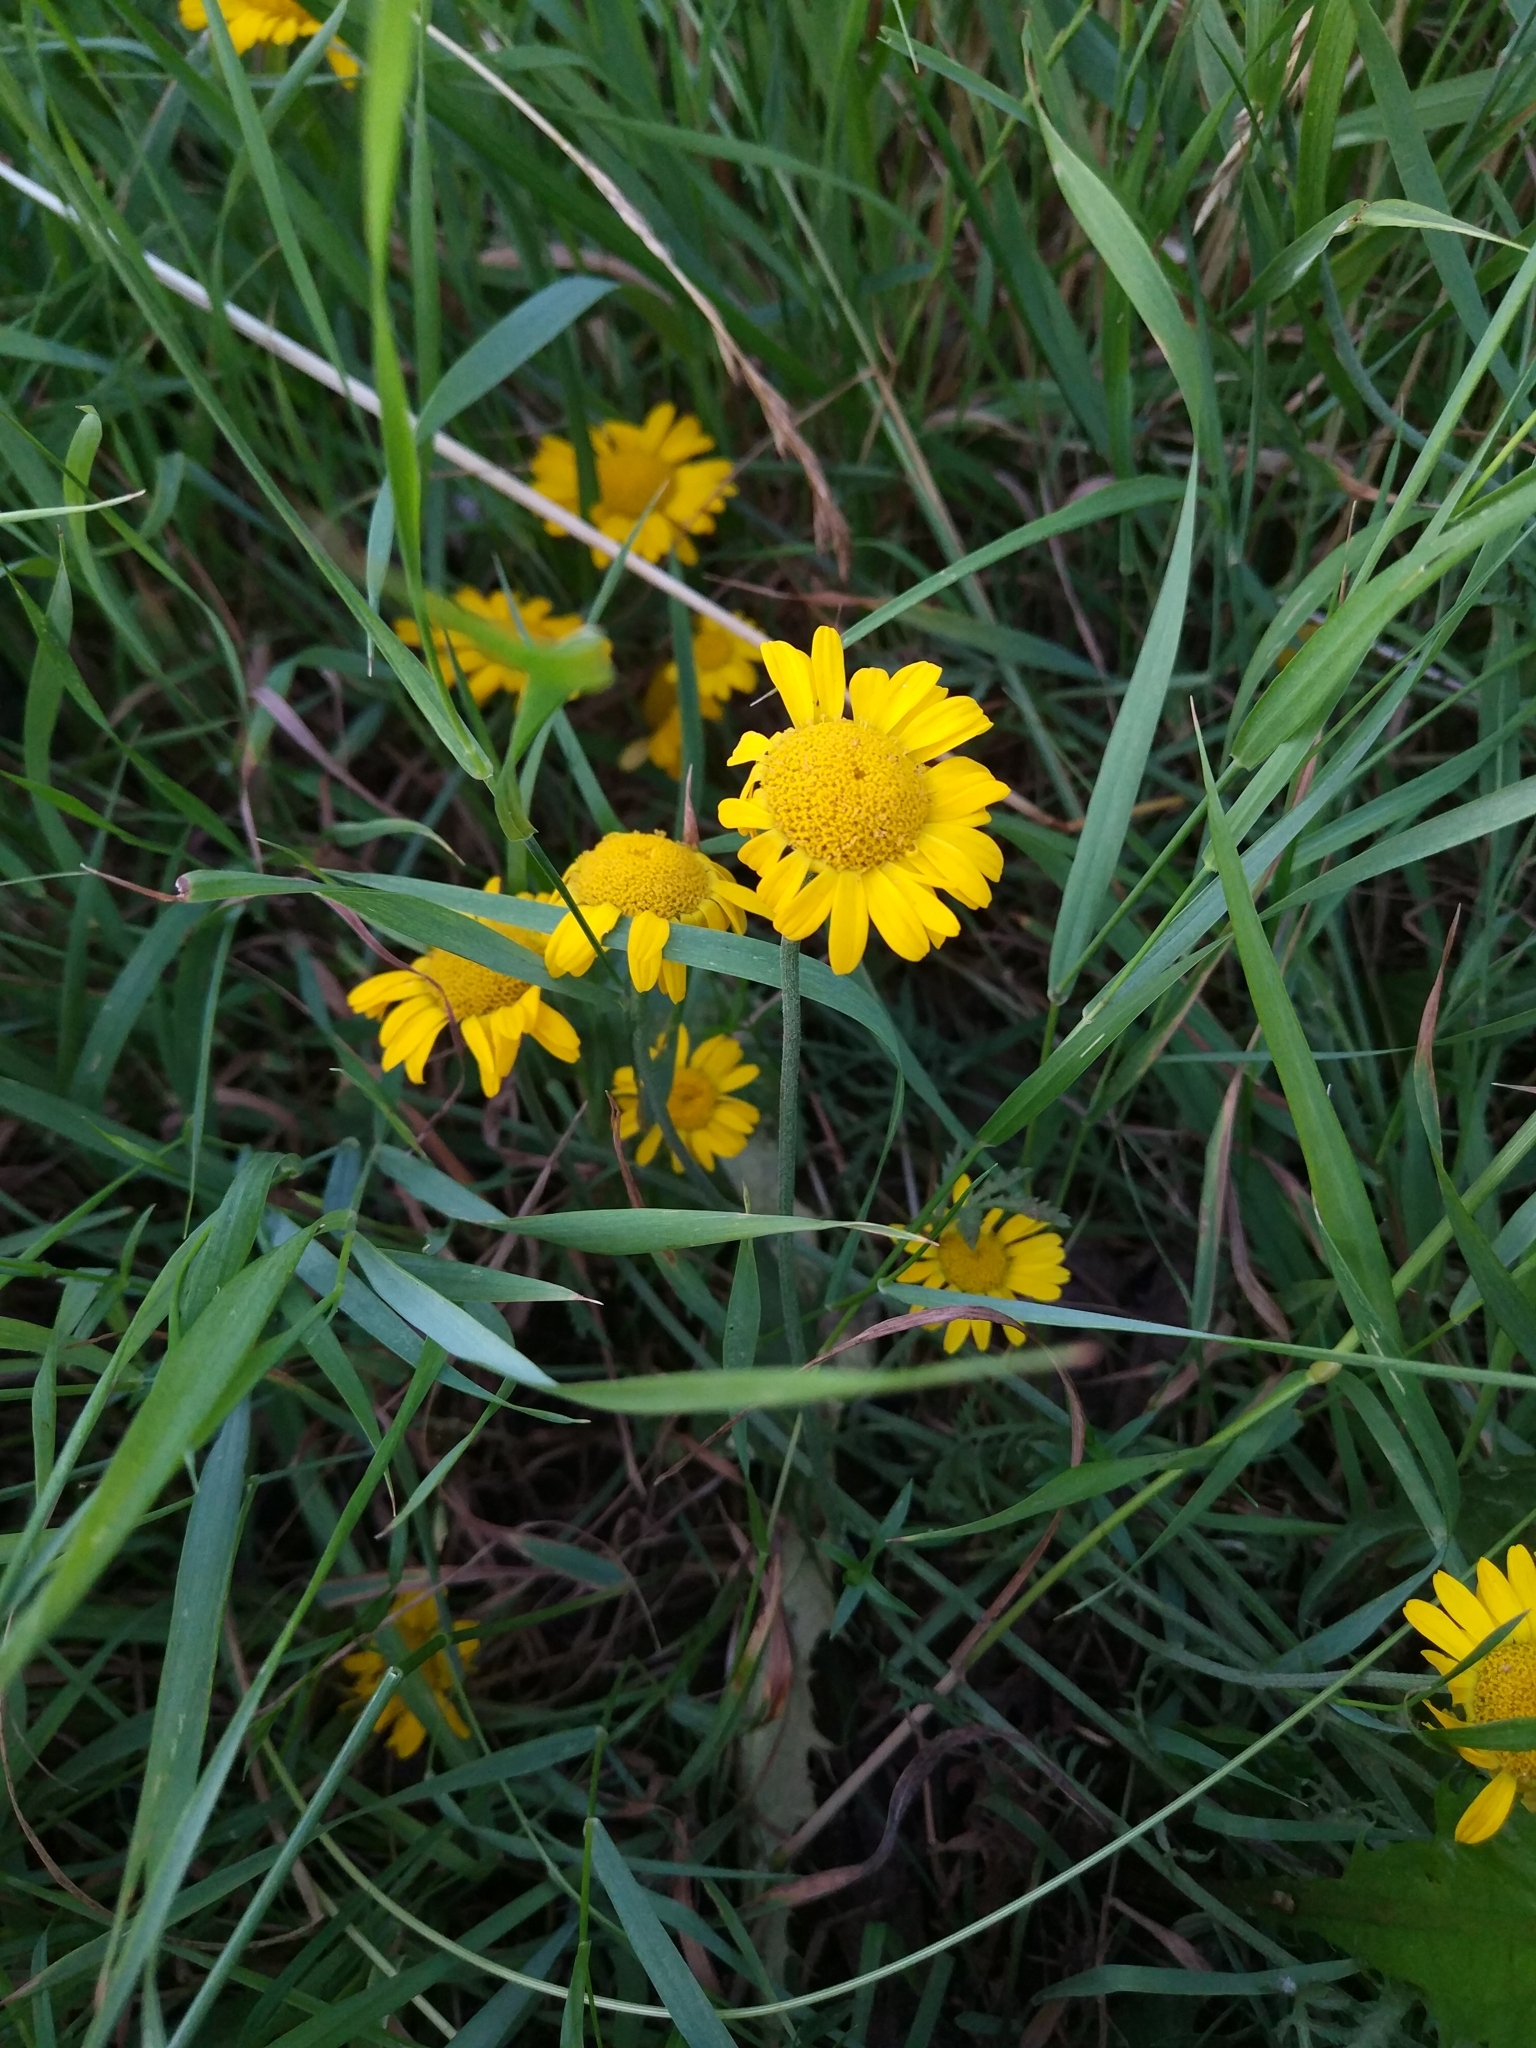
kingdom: Plantae
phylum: Tracheophyta
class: Magnoliopsida
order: Asterales
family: Asteraceae
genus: Cota
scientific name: Cota tinctoria
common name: Golden chamomile
